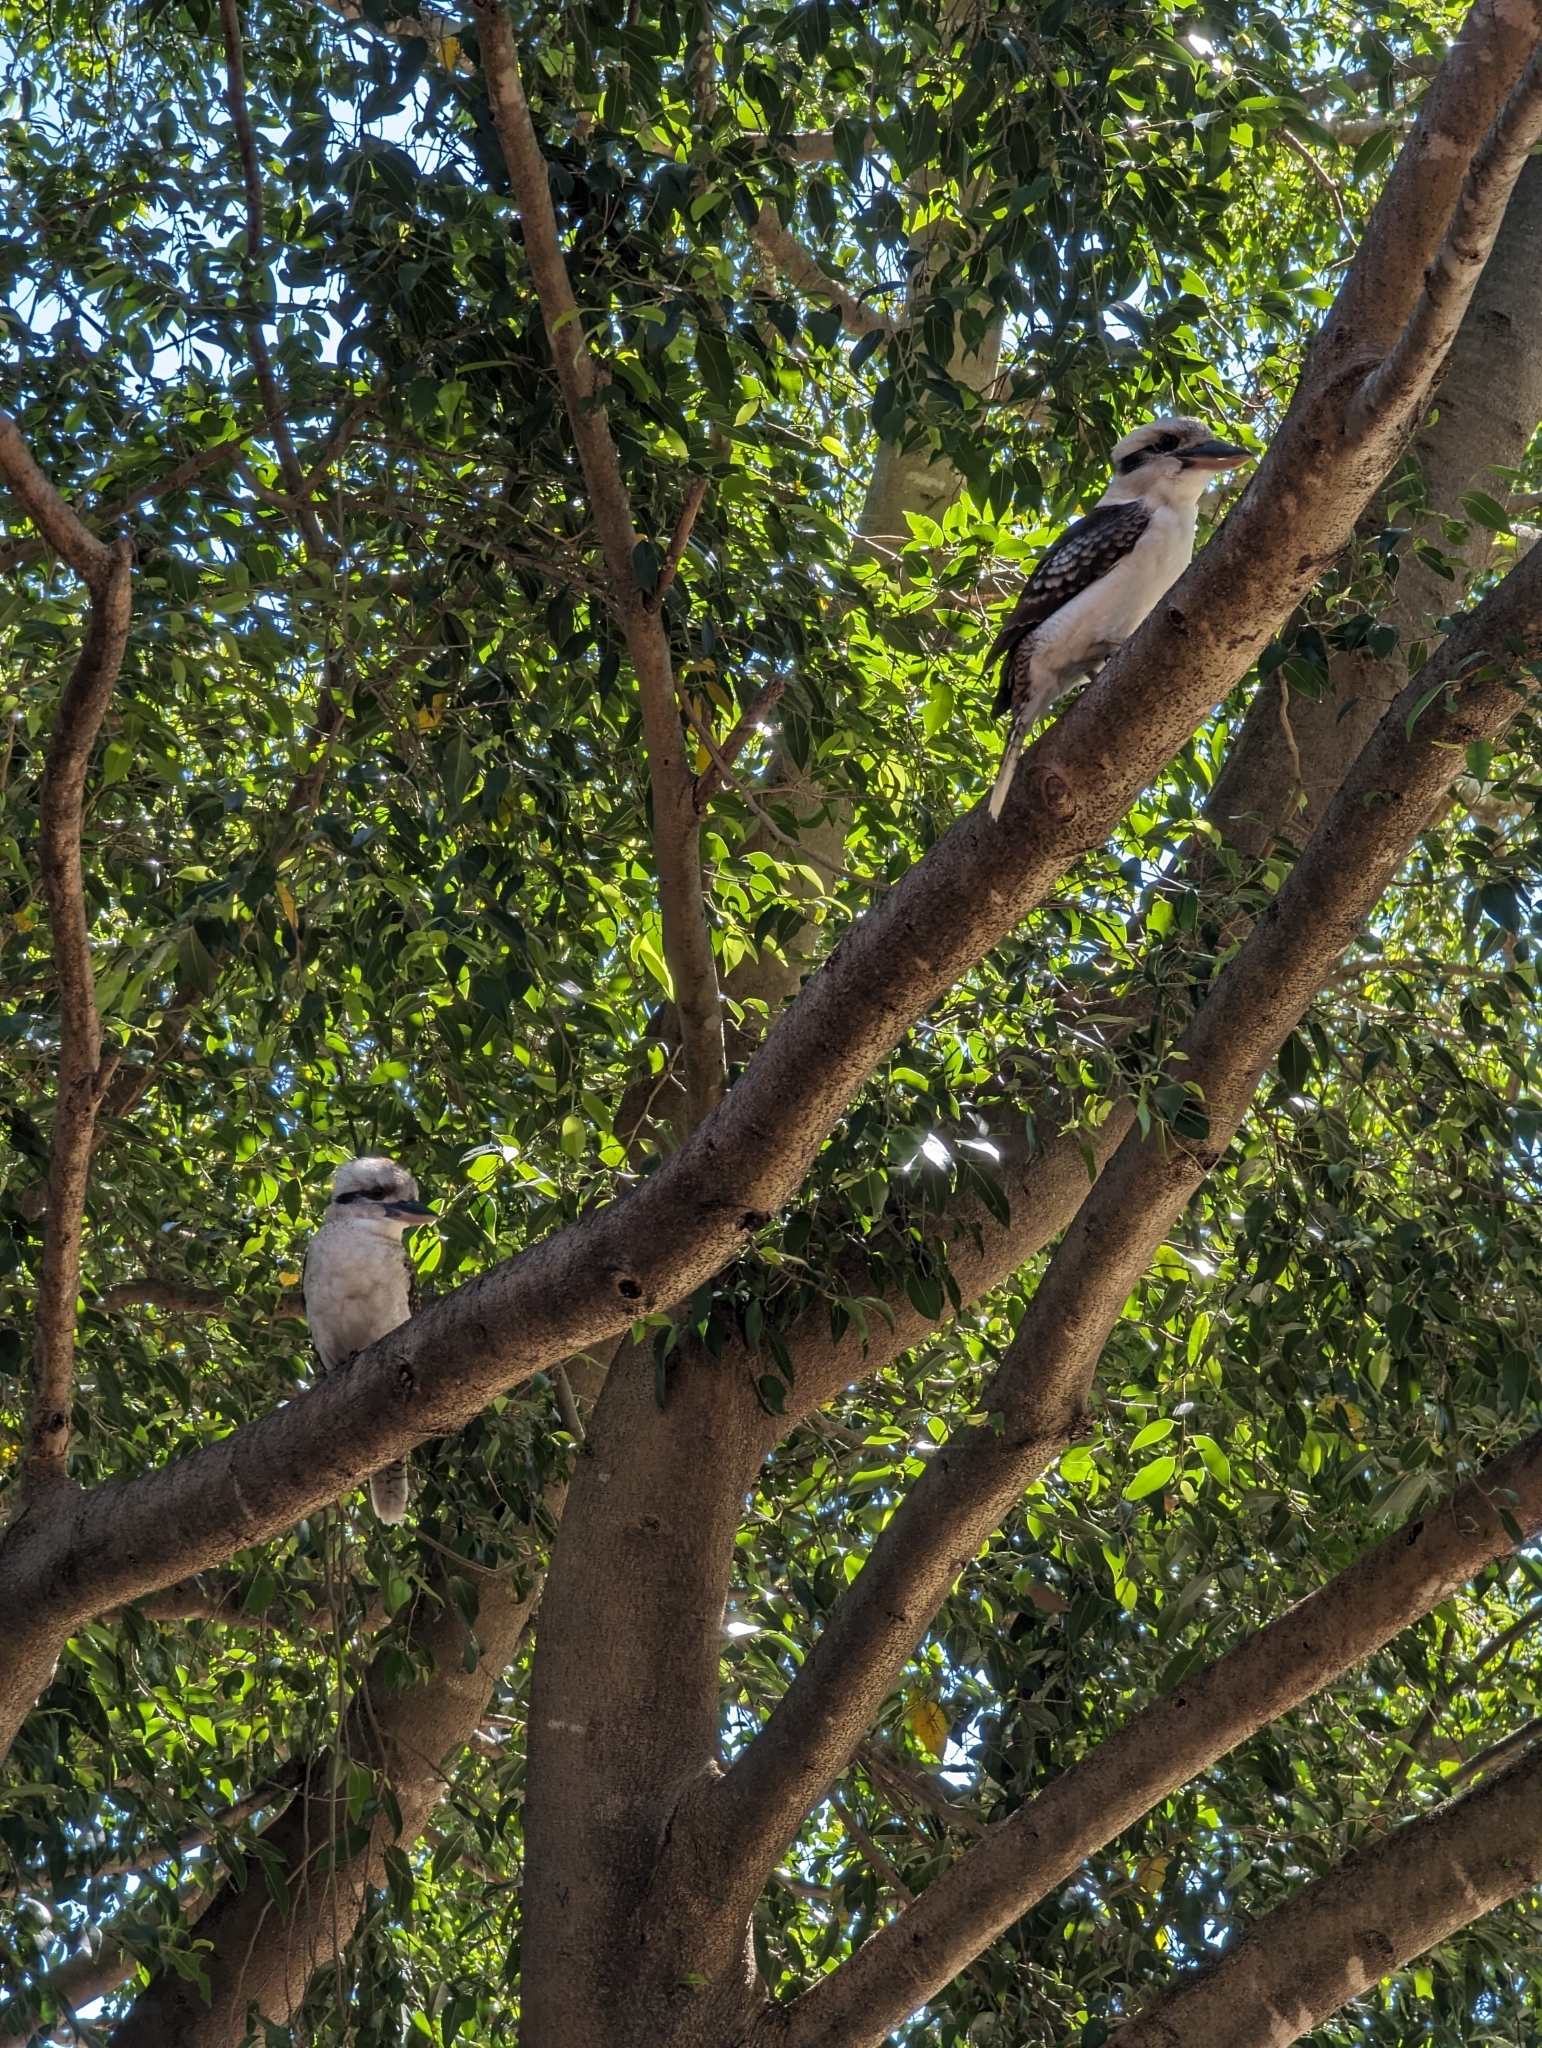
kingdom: Animalia
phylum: Chordata
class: Aves
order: Coraciiformes
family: Alcedinidae
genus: Dacelo
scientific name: Dacelo novaeguineae
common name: Laughing kookaburra
